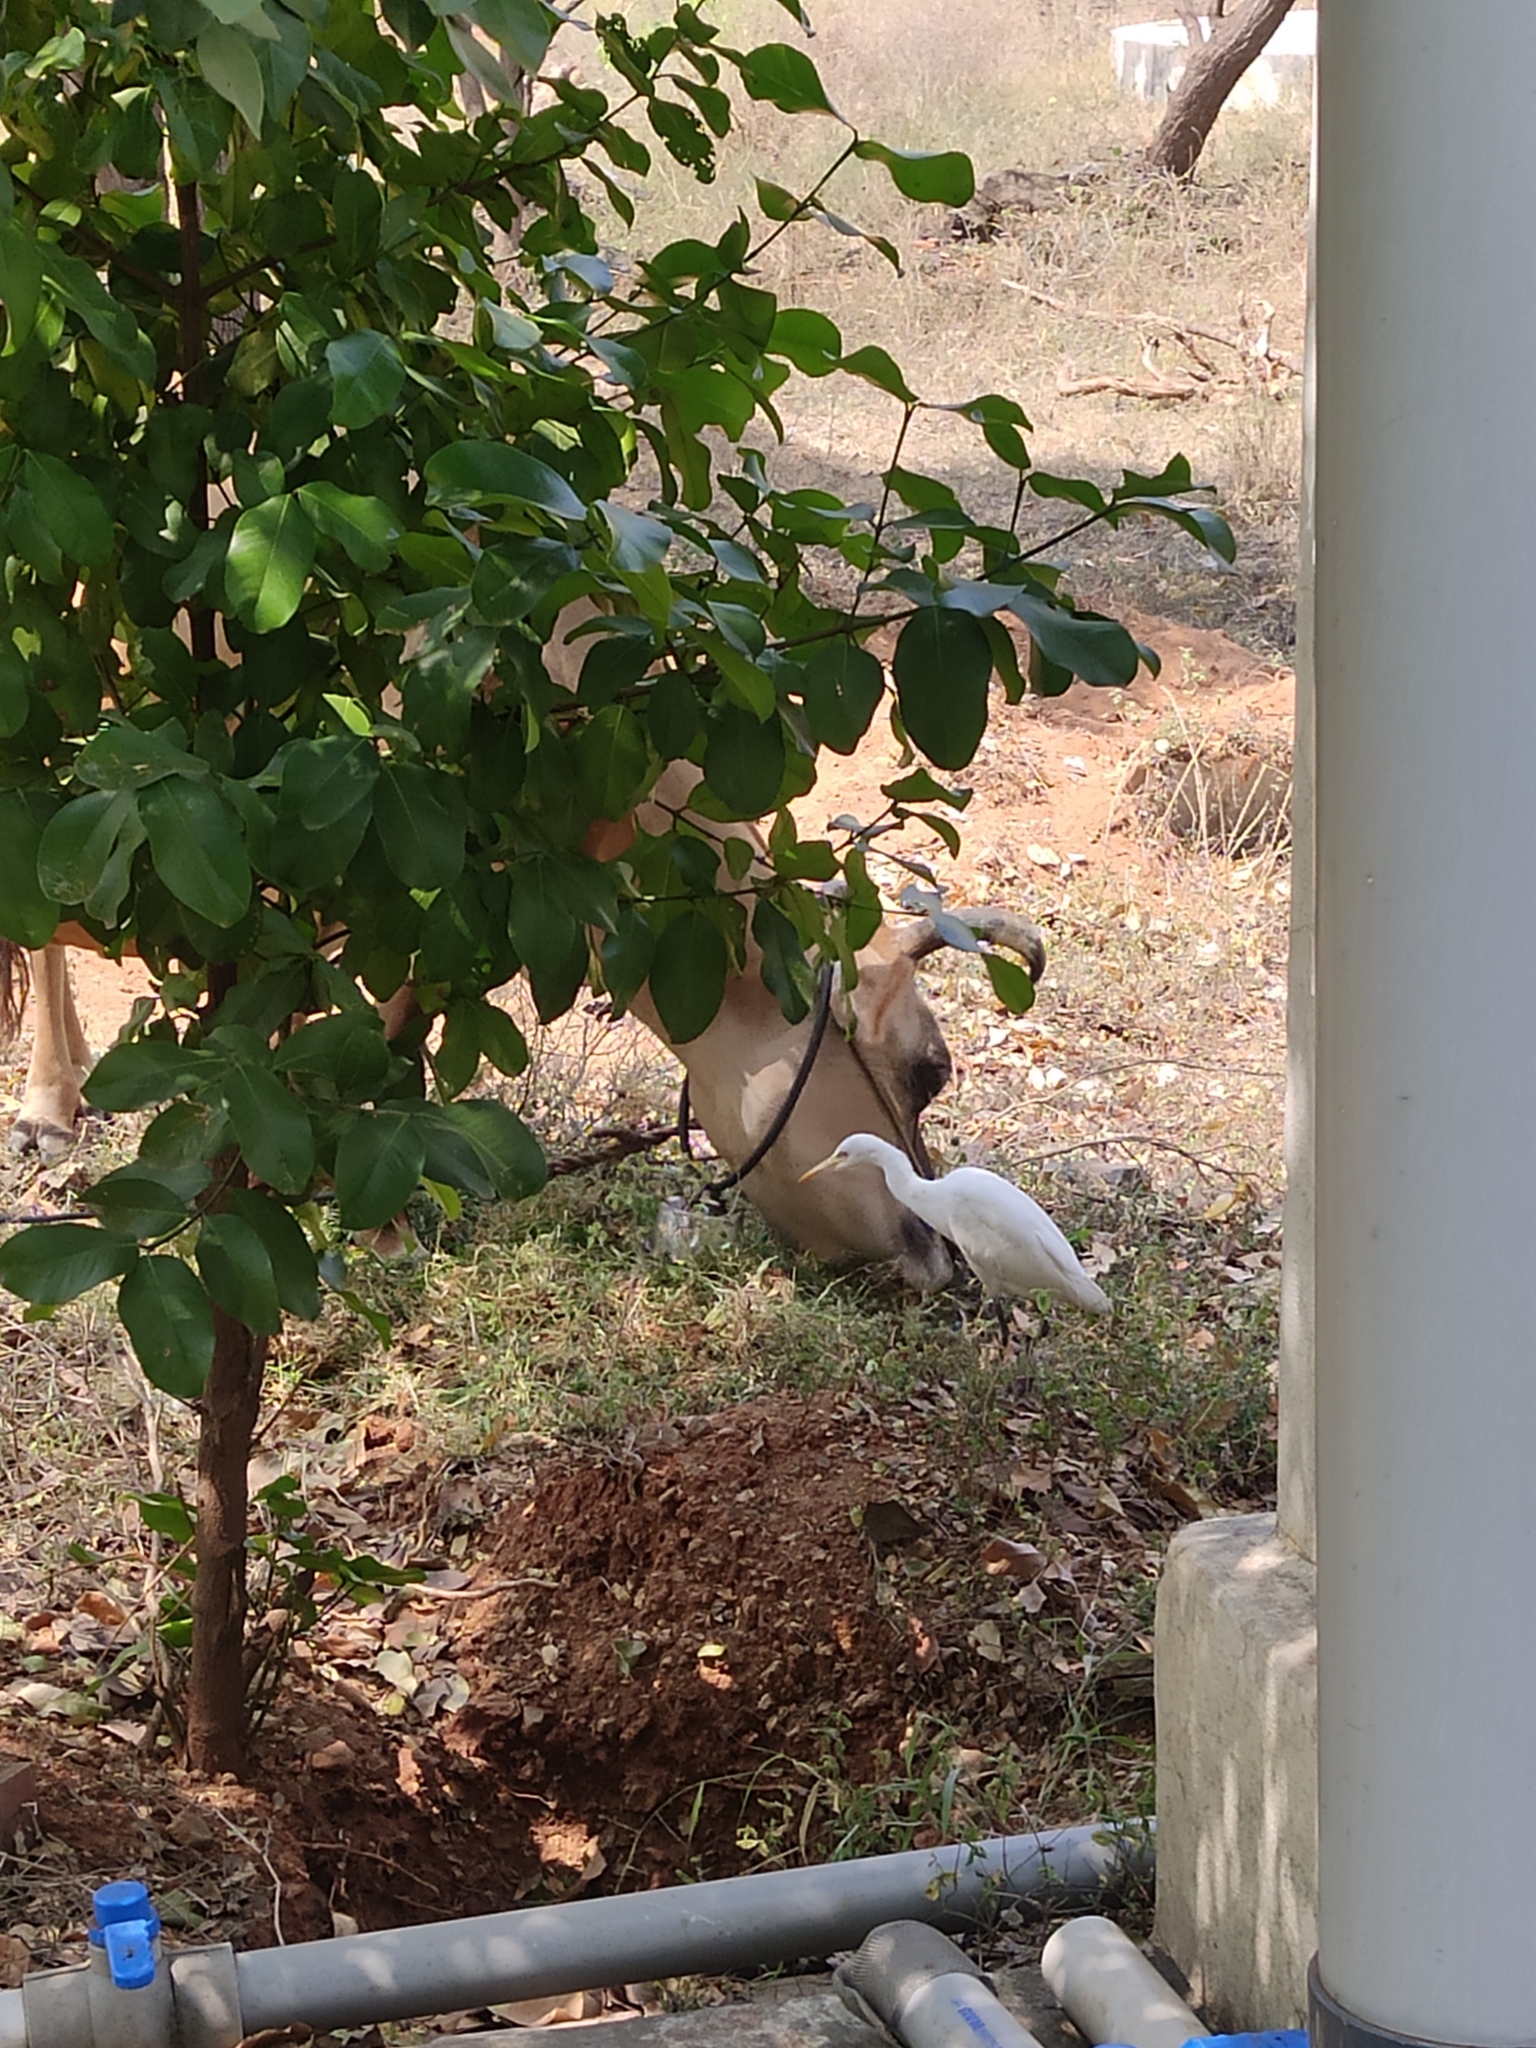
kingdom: Animalia
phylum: Chordata
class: Aves
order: Pelecaniformes
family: Ardeidae
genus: Bubulcus
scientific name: Bubulcus coromandus
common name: Eastern cattle egret
